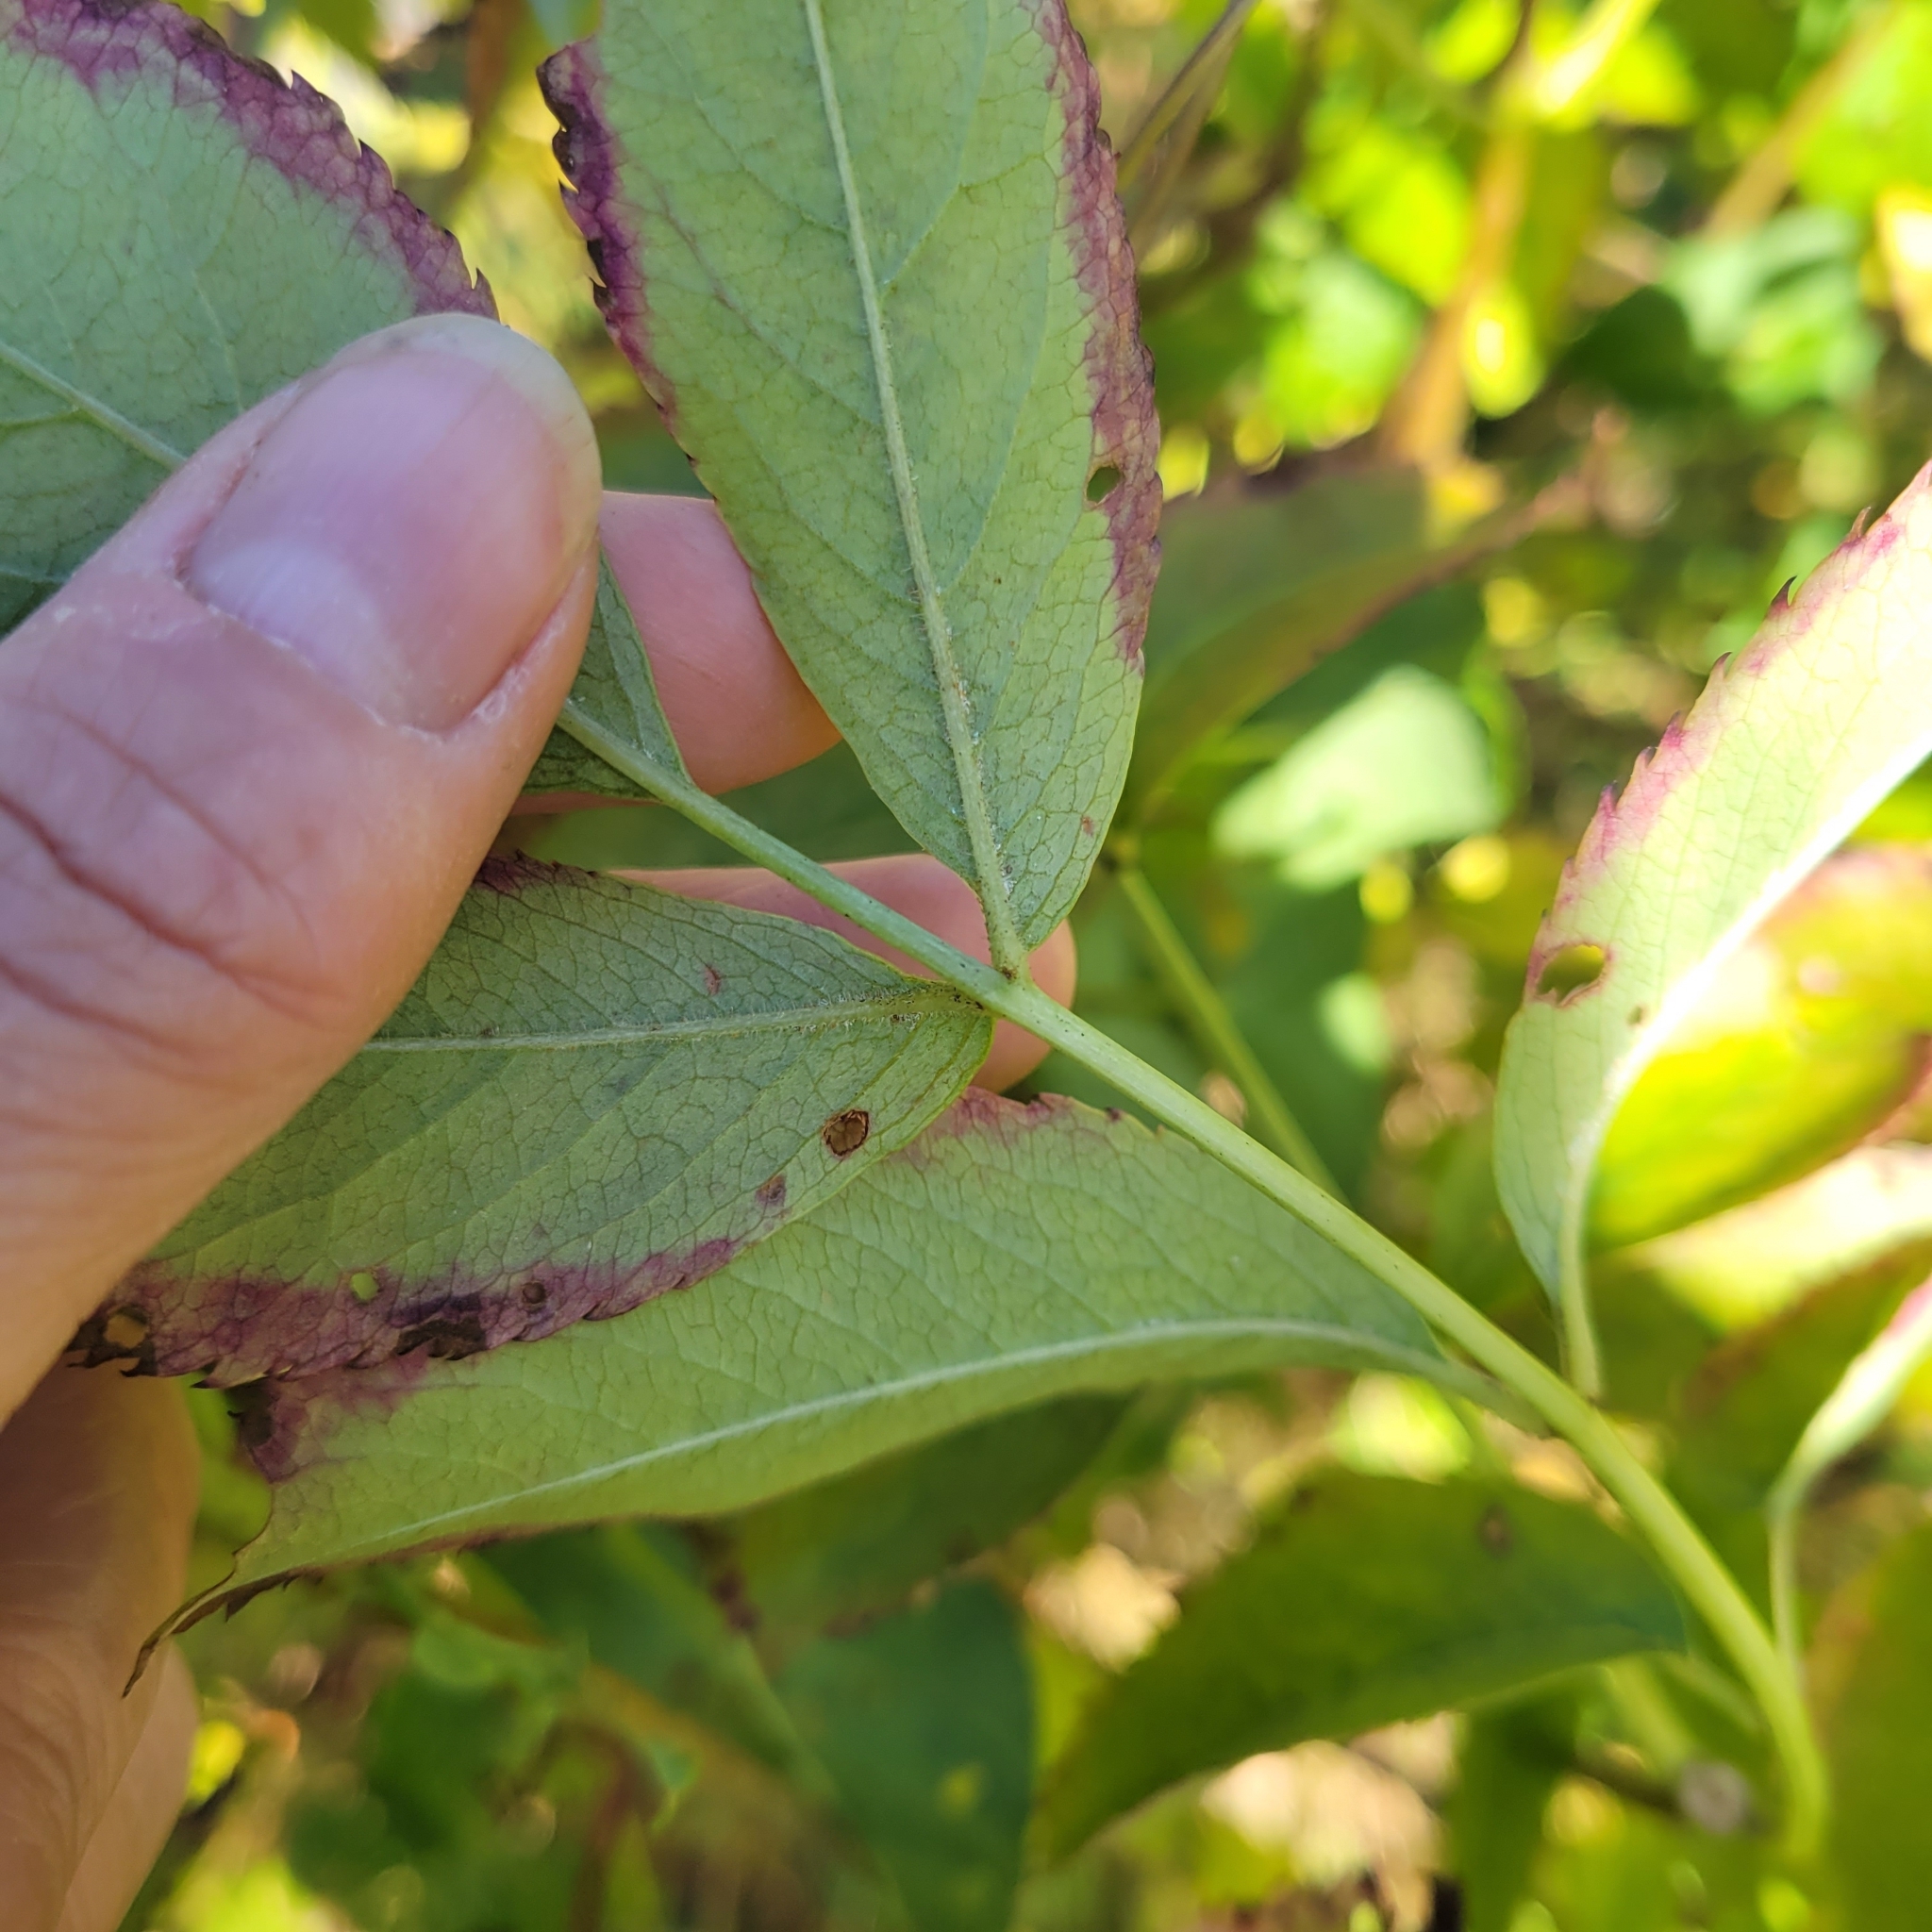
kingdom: Plantae
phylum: Tracheophyta
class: Magnoliopsida
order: Dipsacales
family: Viburnaceae
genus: Sambucus
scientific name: Sambucus canadensis
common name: American elder
